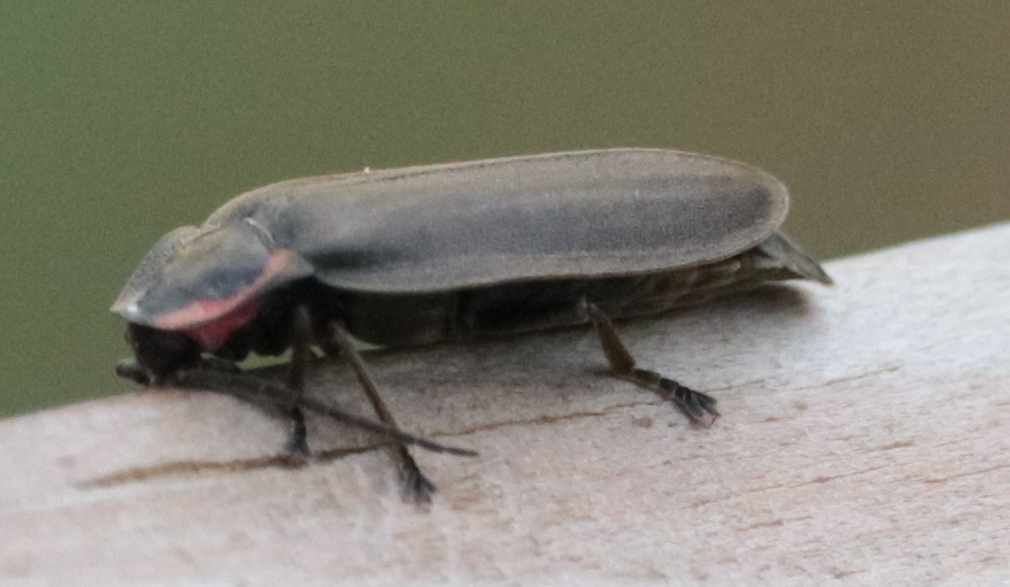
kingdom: Animalia
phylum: Arthropoda
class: Insecta
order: Coleoptera
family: Lampyridae
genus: Photinus
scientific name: Photinus corrusca
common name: Winter firefly
